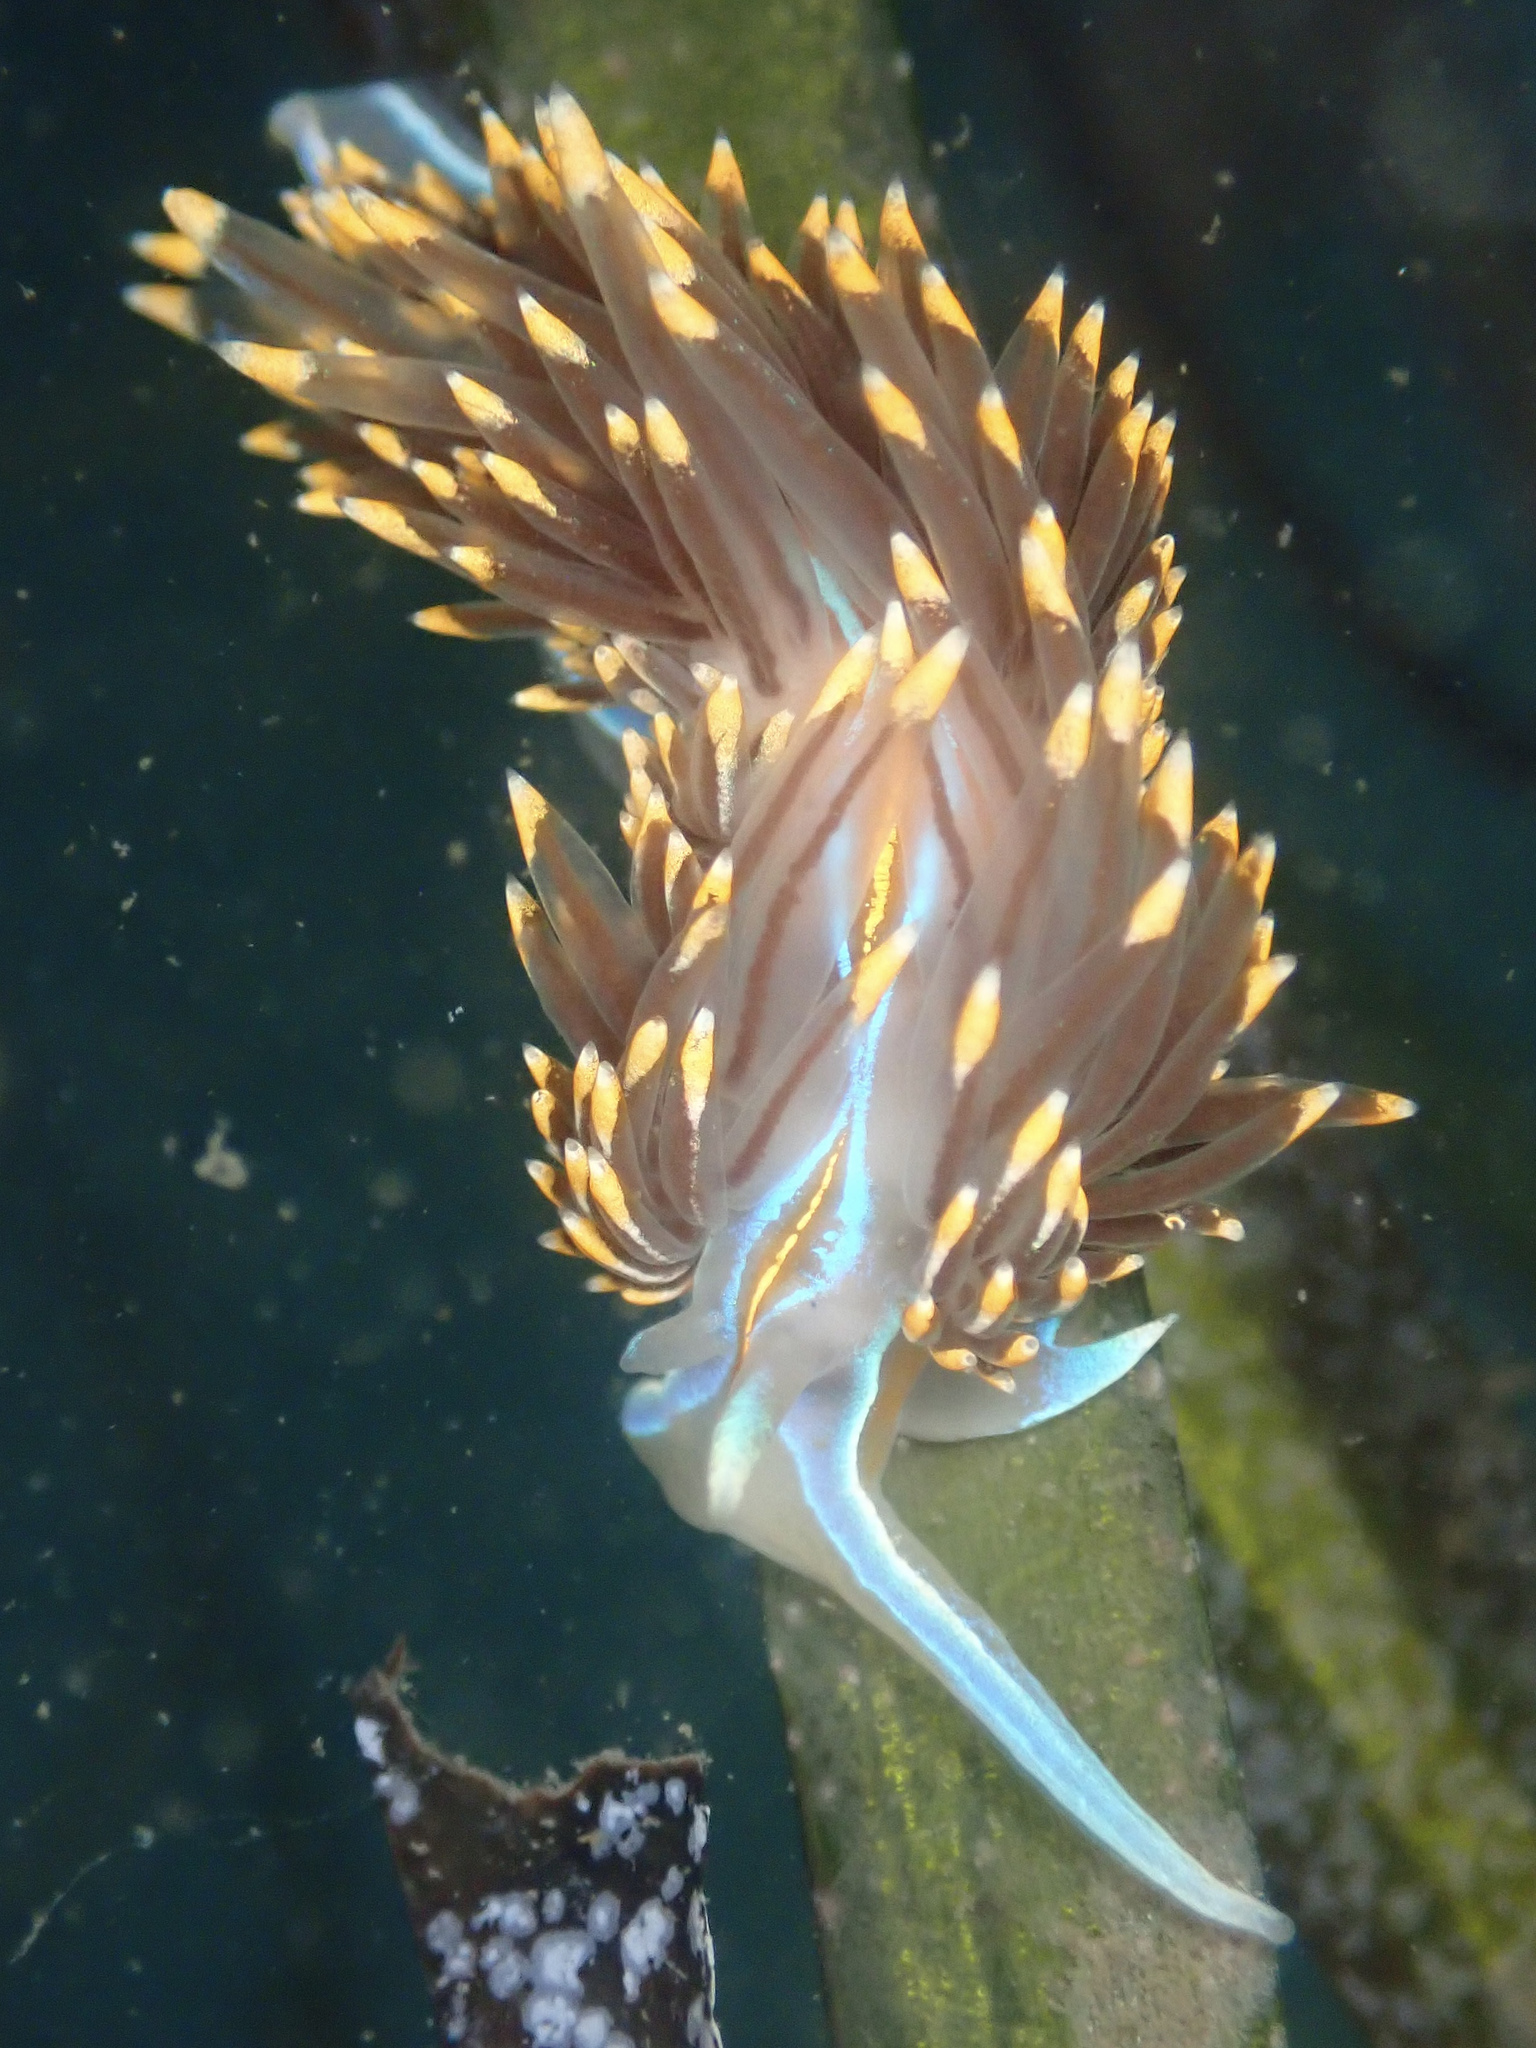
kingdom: Animalia
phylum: Mollusca
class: Gastropoda
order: Nudibranchia
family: Myrrhinidae
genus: Hermissenda
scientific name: Hermissenda opalescens
